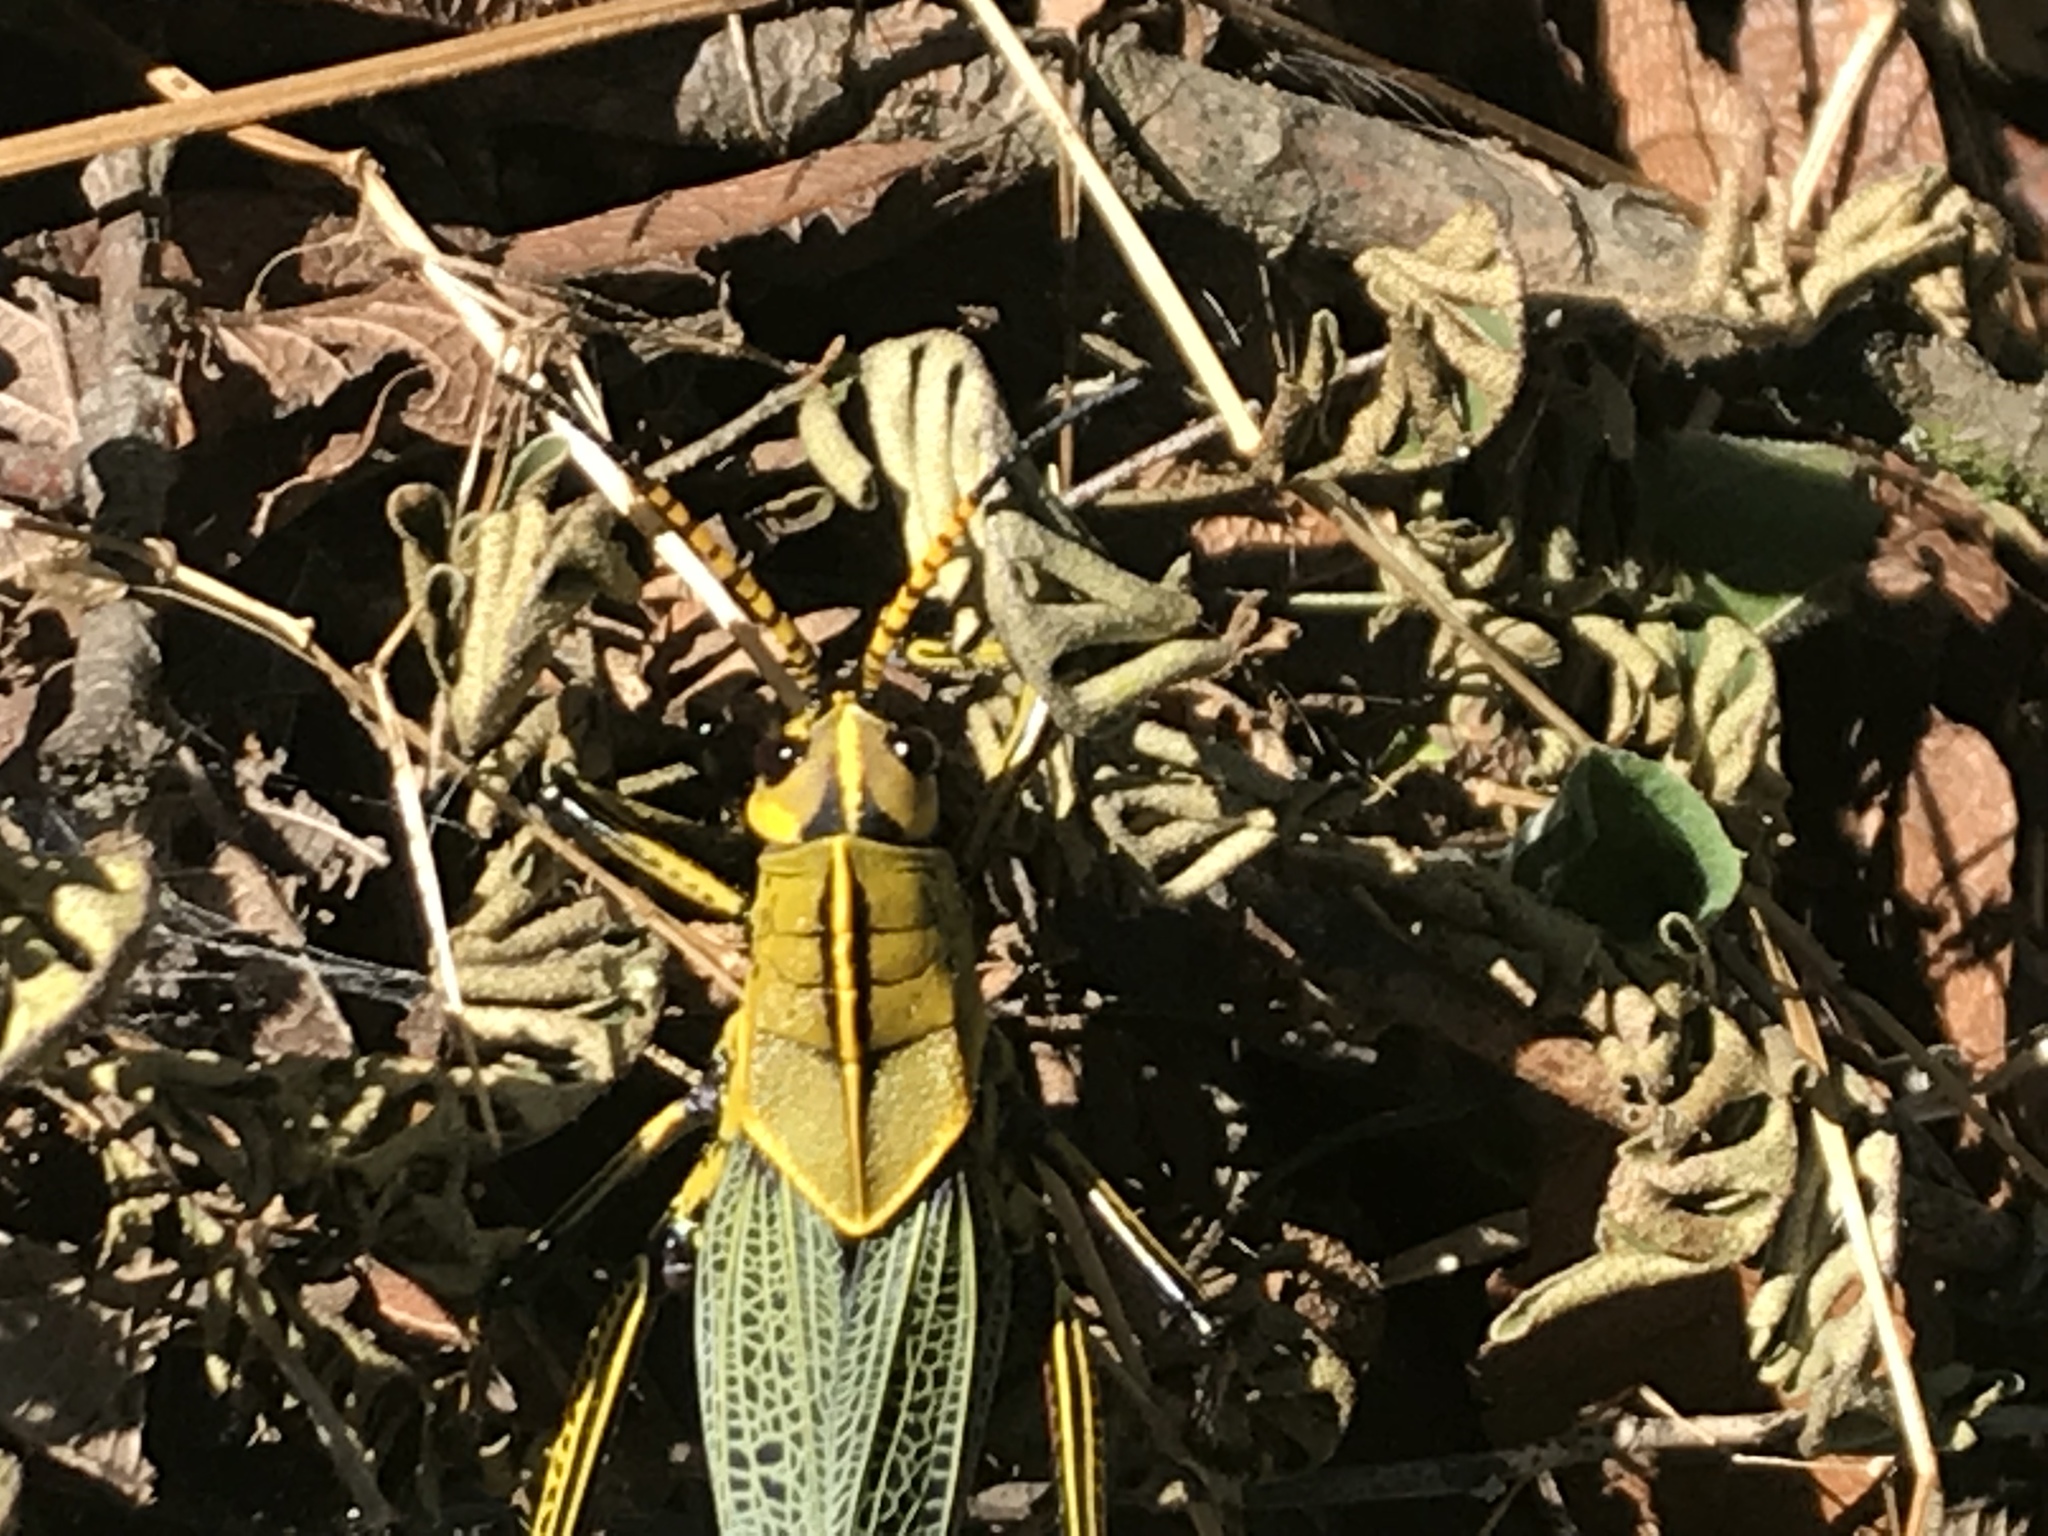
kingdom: Animalia
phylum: Arthropoda
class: Insecta
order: Orthoptera
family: Romaleidae
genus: Romalea
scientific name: Romalea
